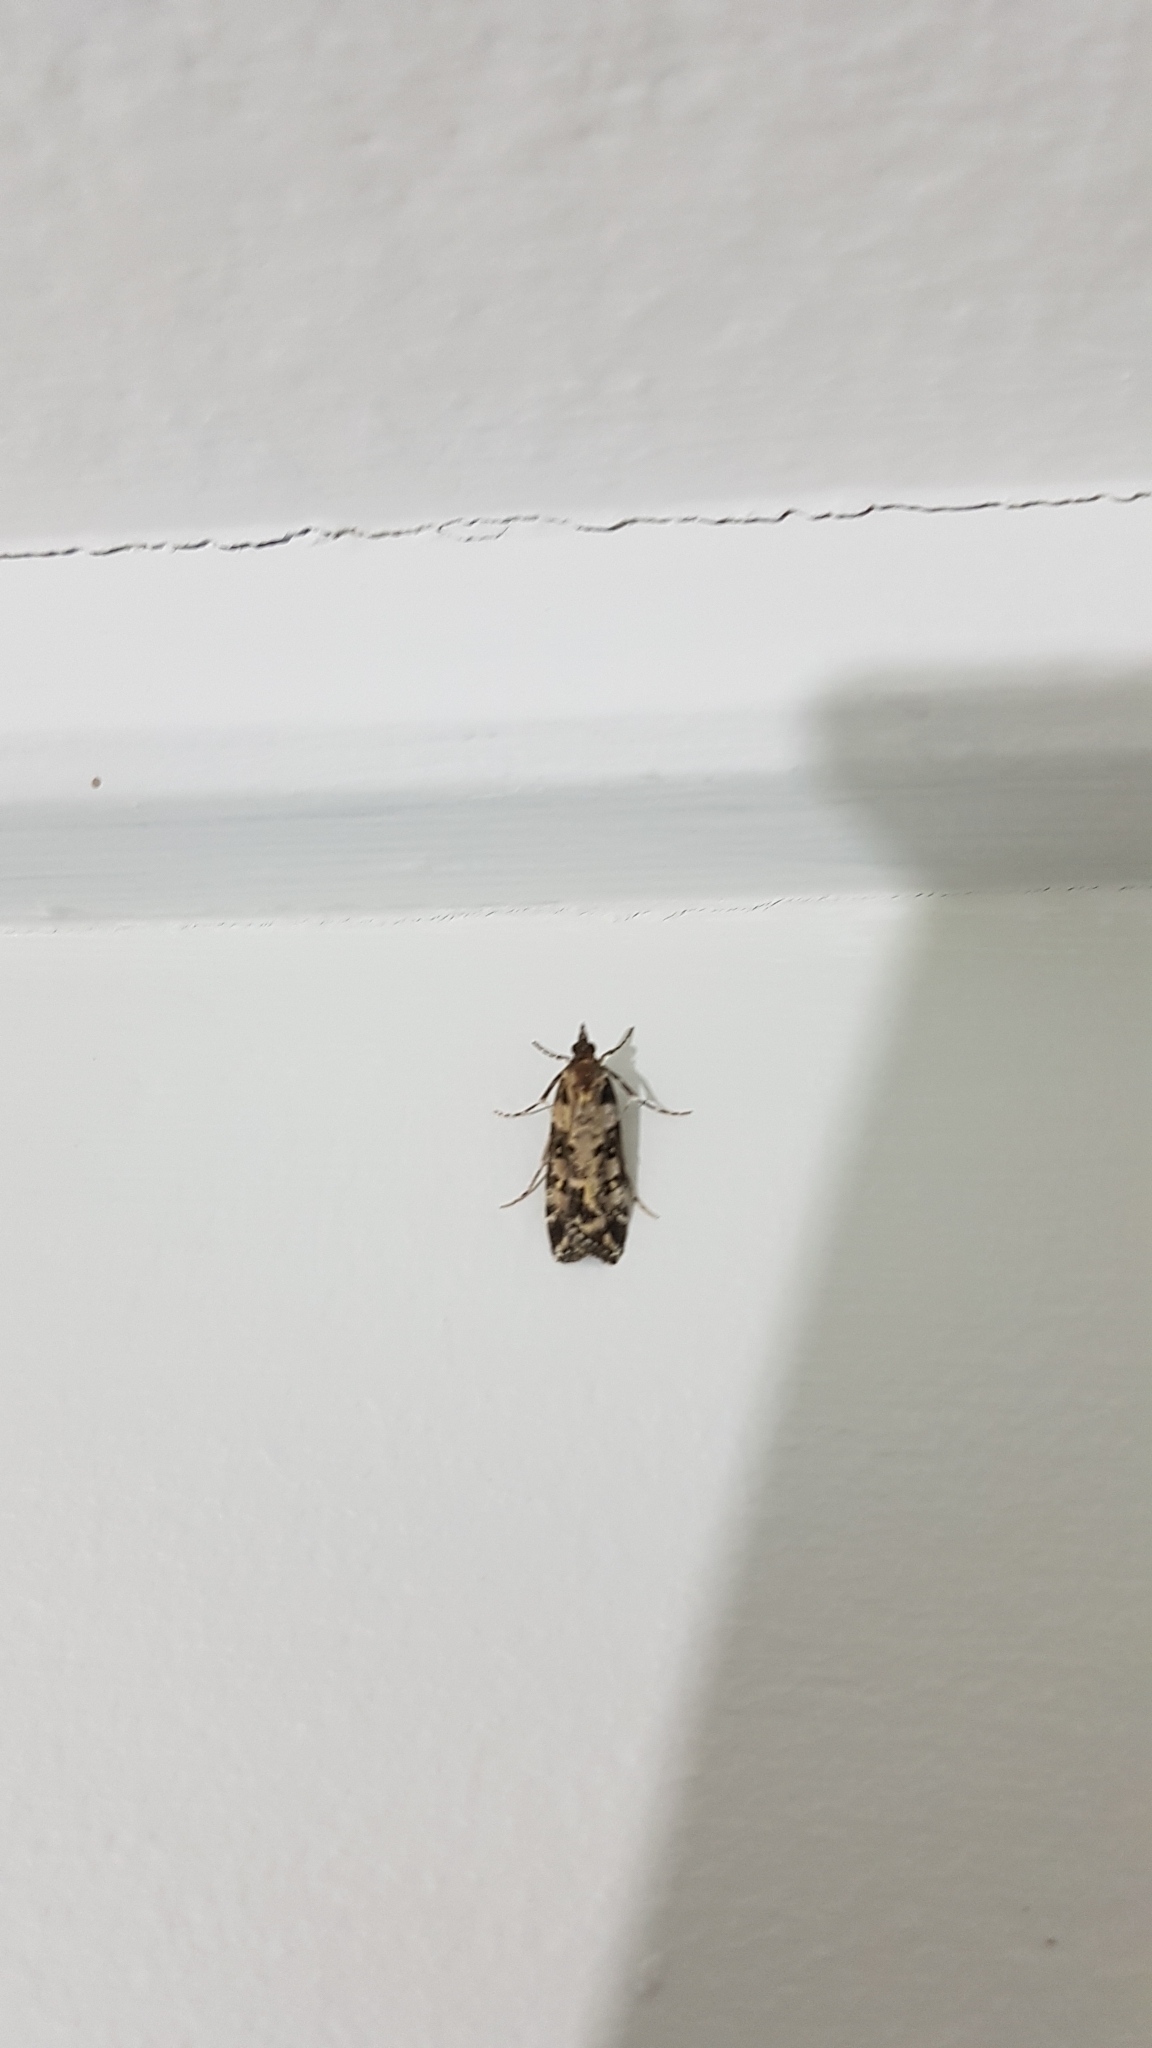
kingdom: Animalia
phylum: Arthropoda
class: Insecta
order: Lepidoptera
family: Crambidae
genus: Eudonia
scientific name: Eudonia diphtheralis
